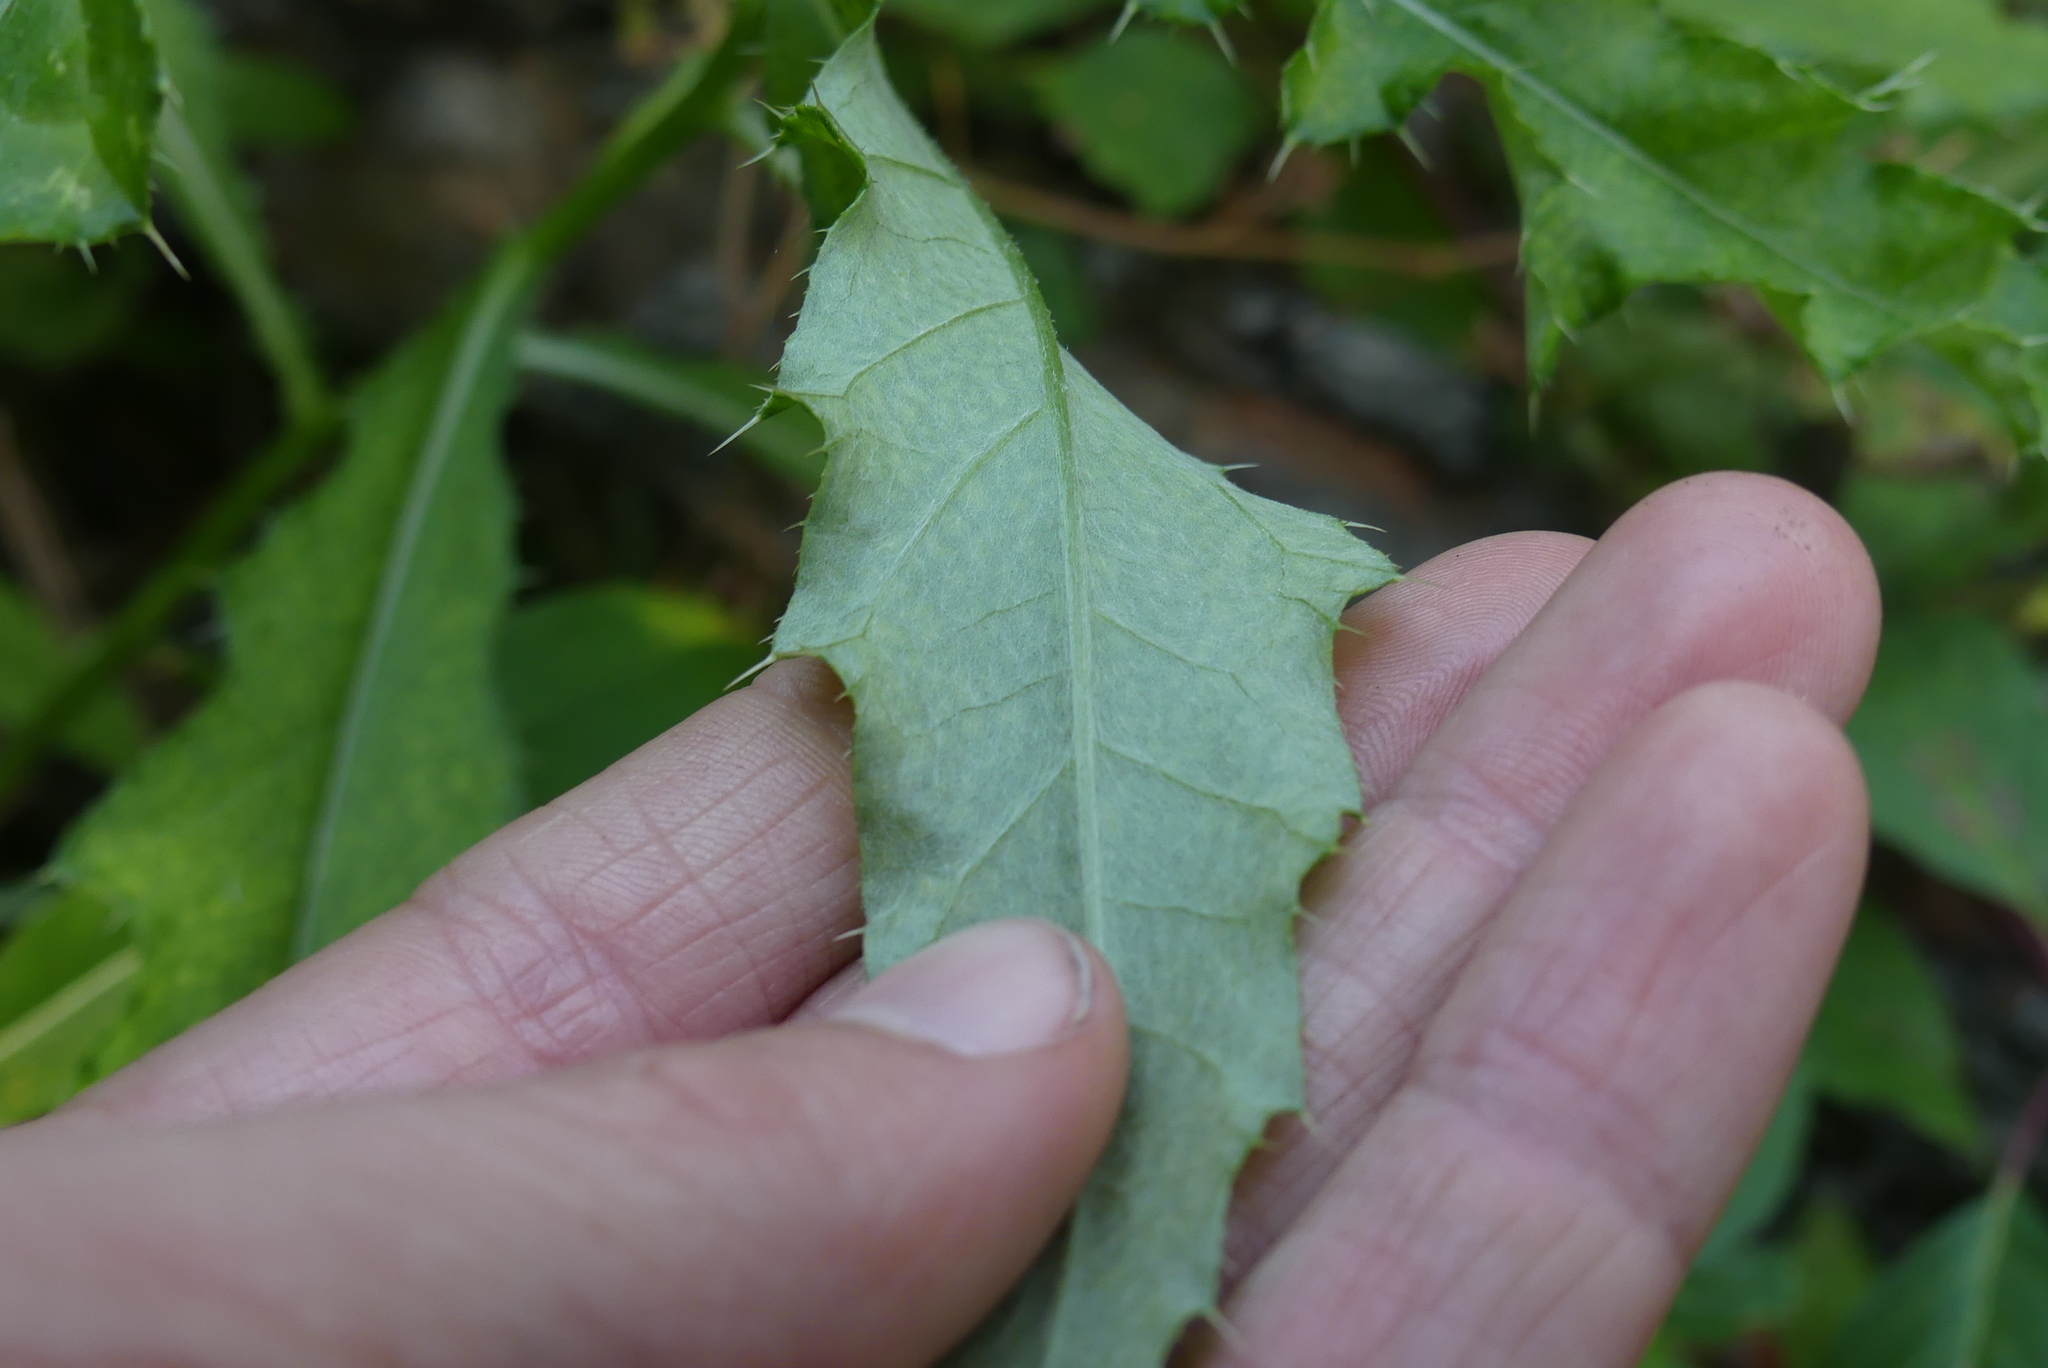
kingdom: Plantae
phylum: Tracheophyta
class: Magnoliopsida
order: Asterales
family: Asteraceae
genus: Cirsium
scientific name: Cirsium arvense
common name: Creeping thistle
